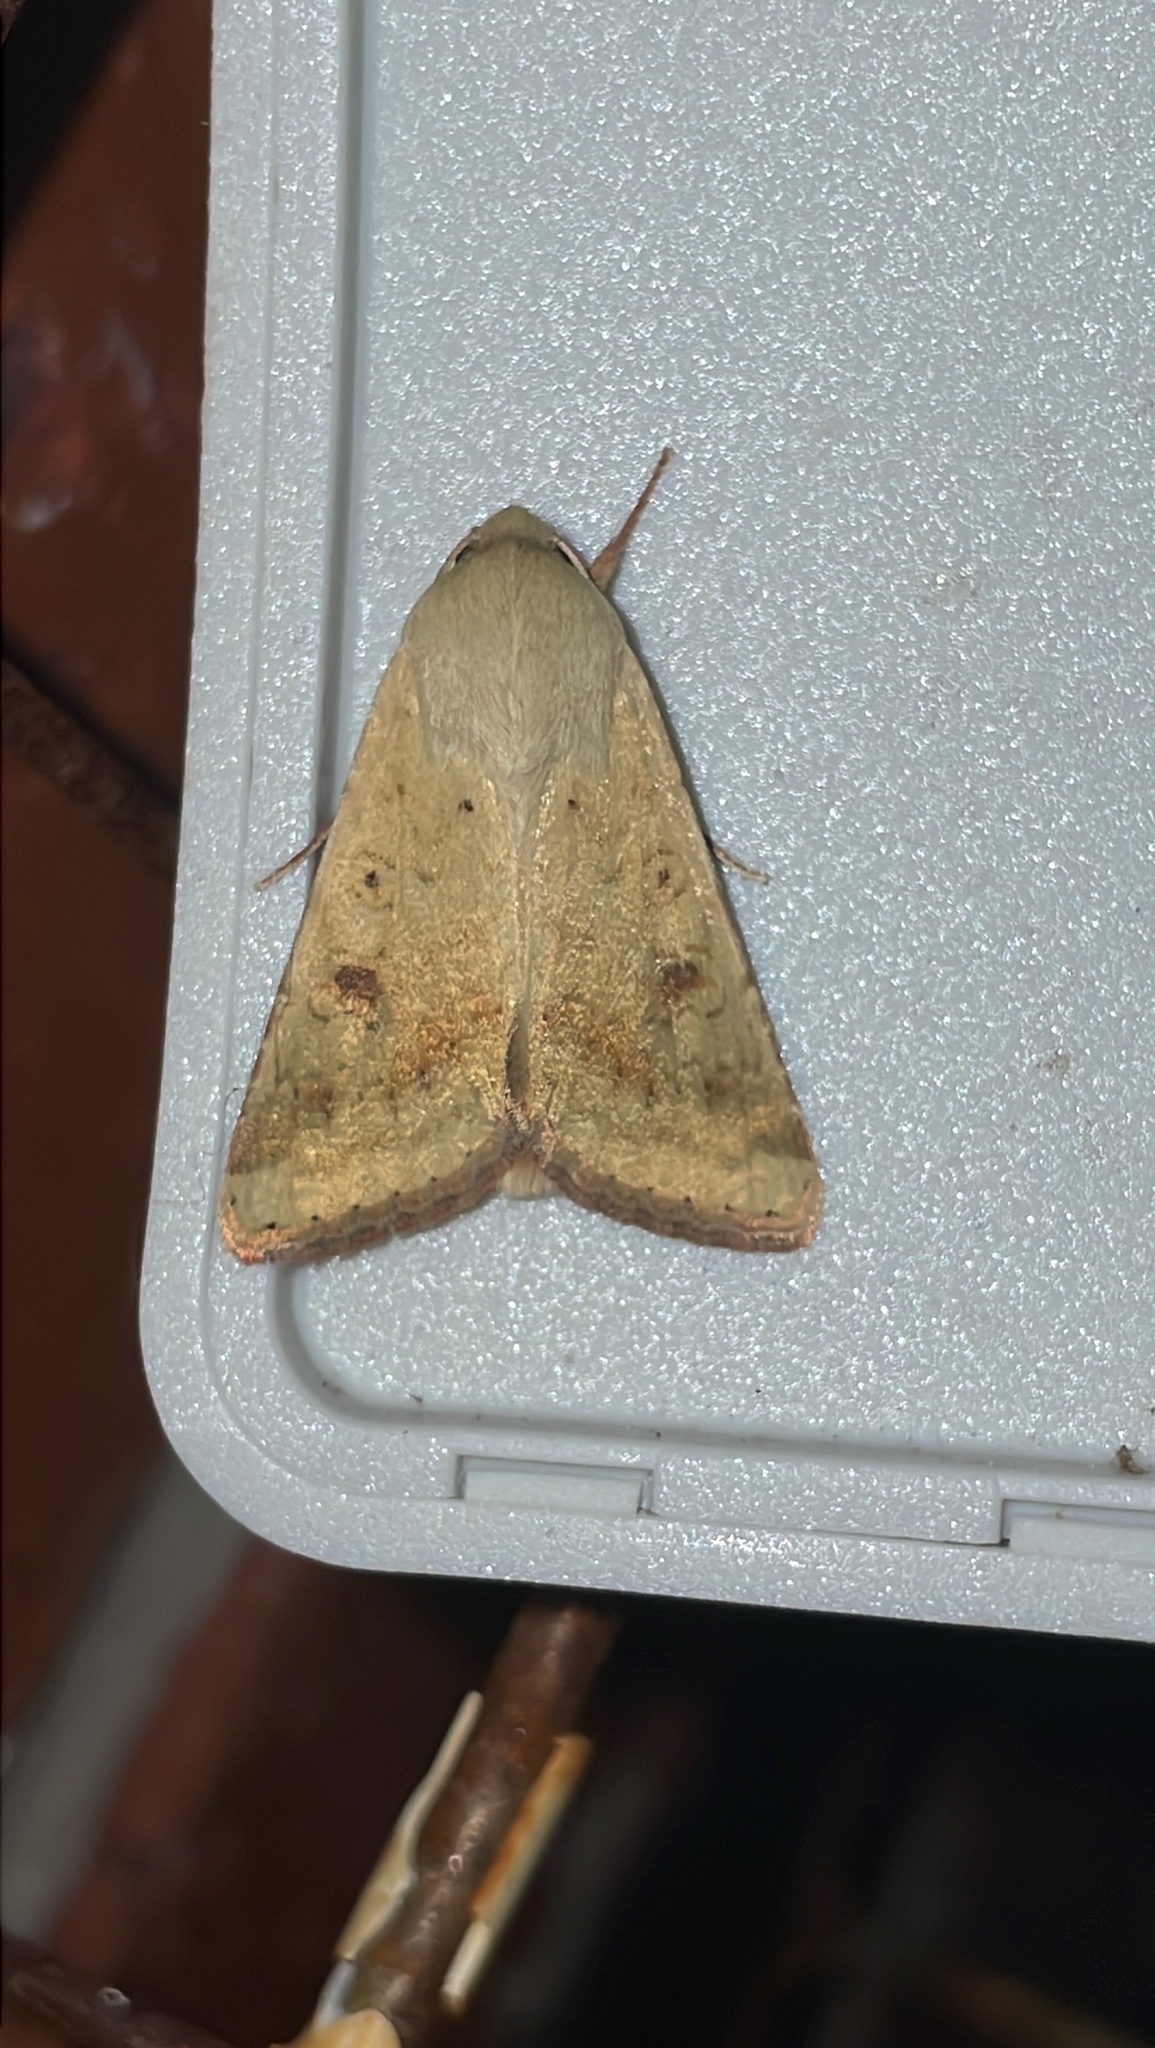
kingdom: Animalia
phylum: Arthropoda
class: Insecta
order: Lepidoptera
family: Noctuidae
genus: Helicoverpa
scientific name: Helicoverpa zea
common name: Bollworm
